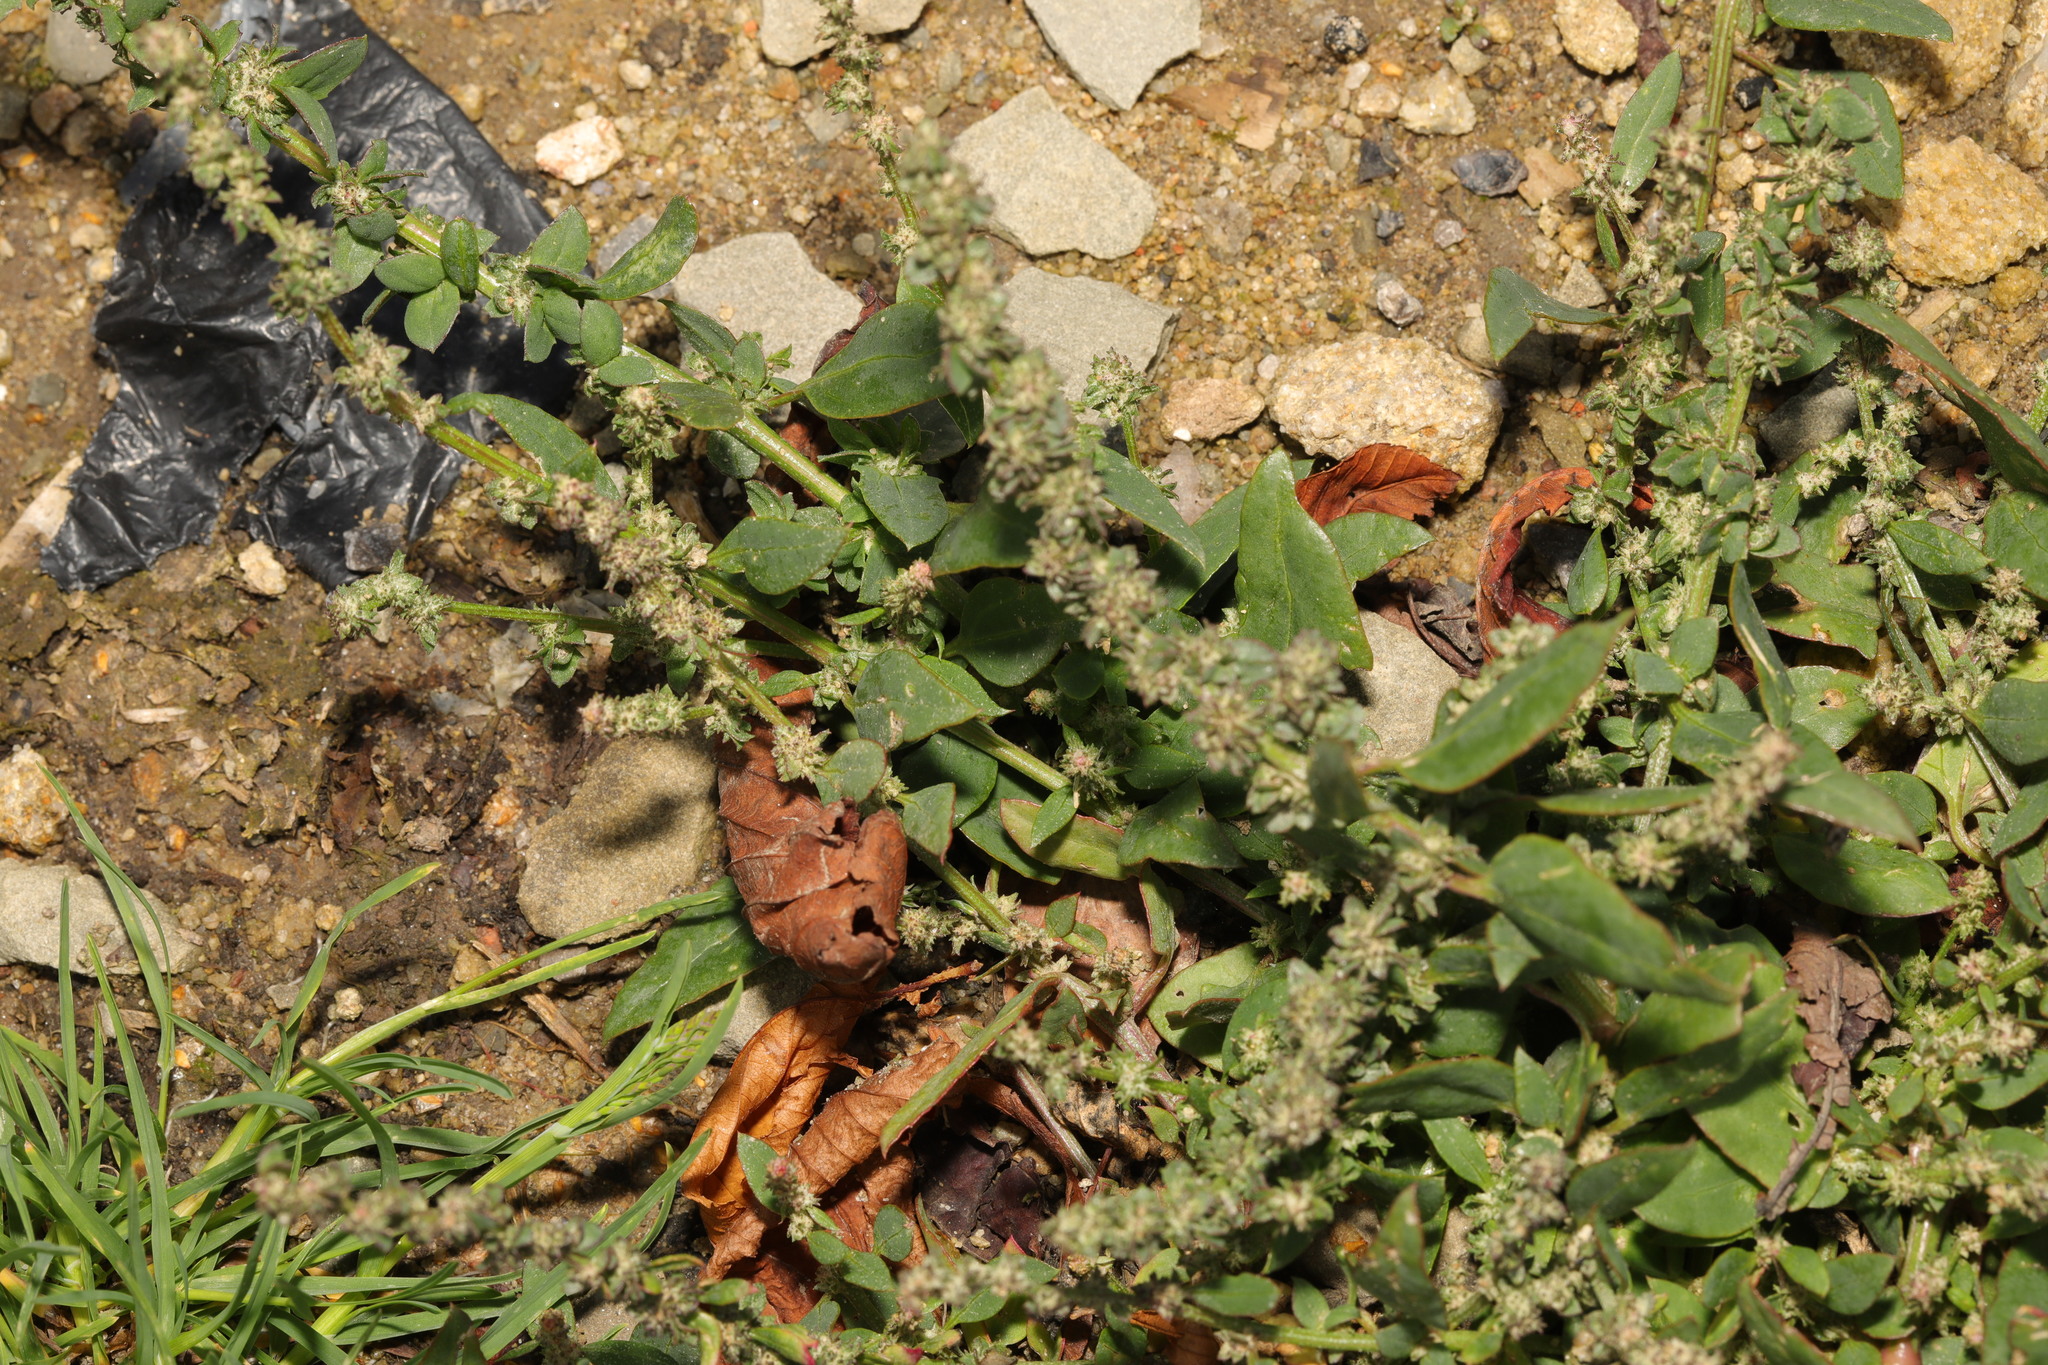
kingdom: Plantae
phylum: Tracheophyta
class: Magnoliopsida
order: Caryophyllales
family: Amaranthaceae
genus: Atriplex
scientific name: Atriplex prostrata
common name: Spear-leaved orache
